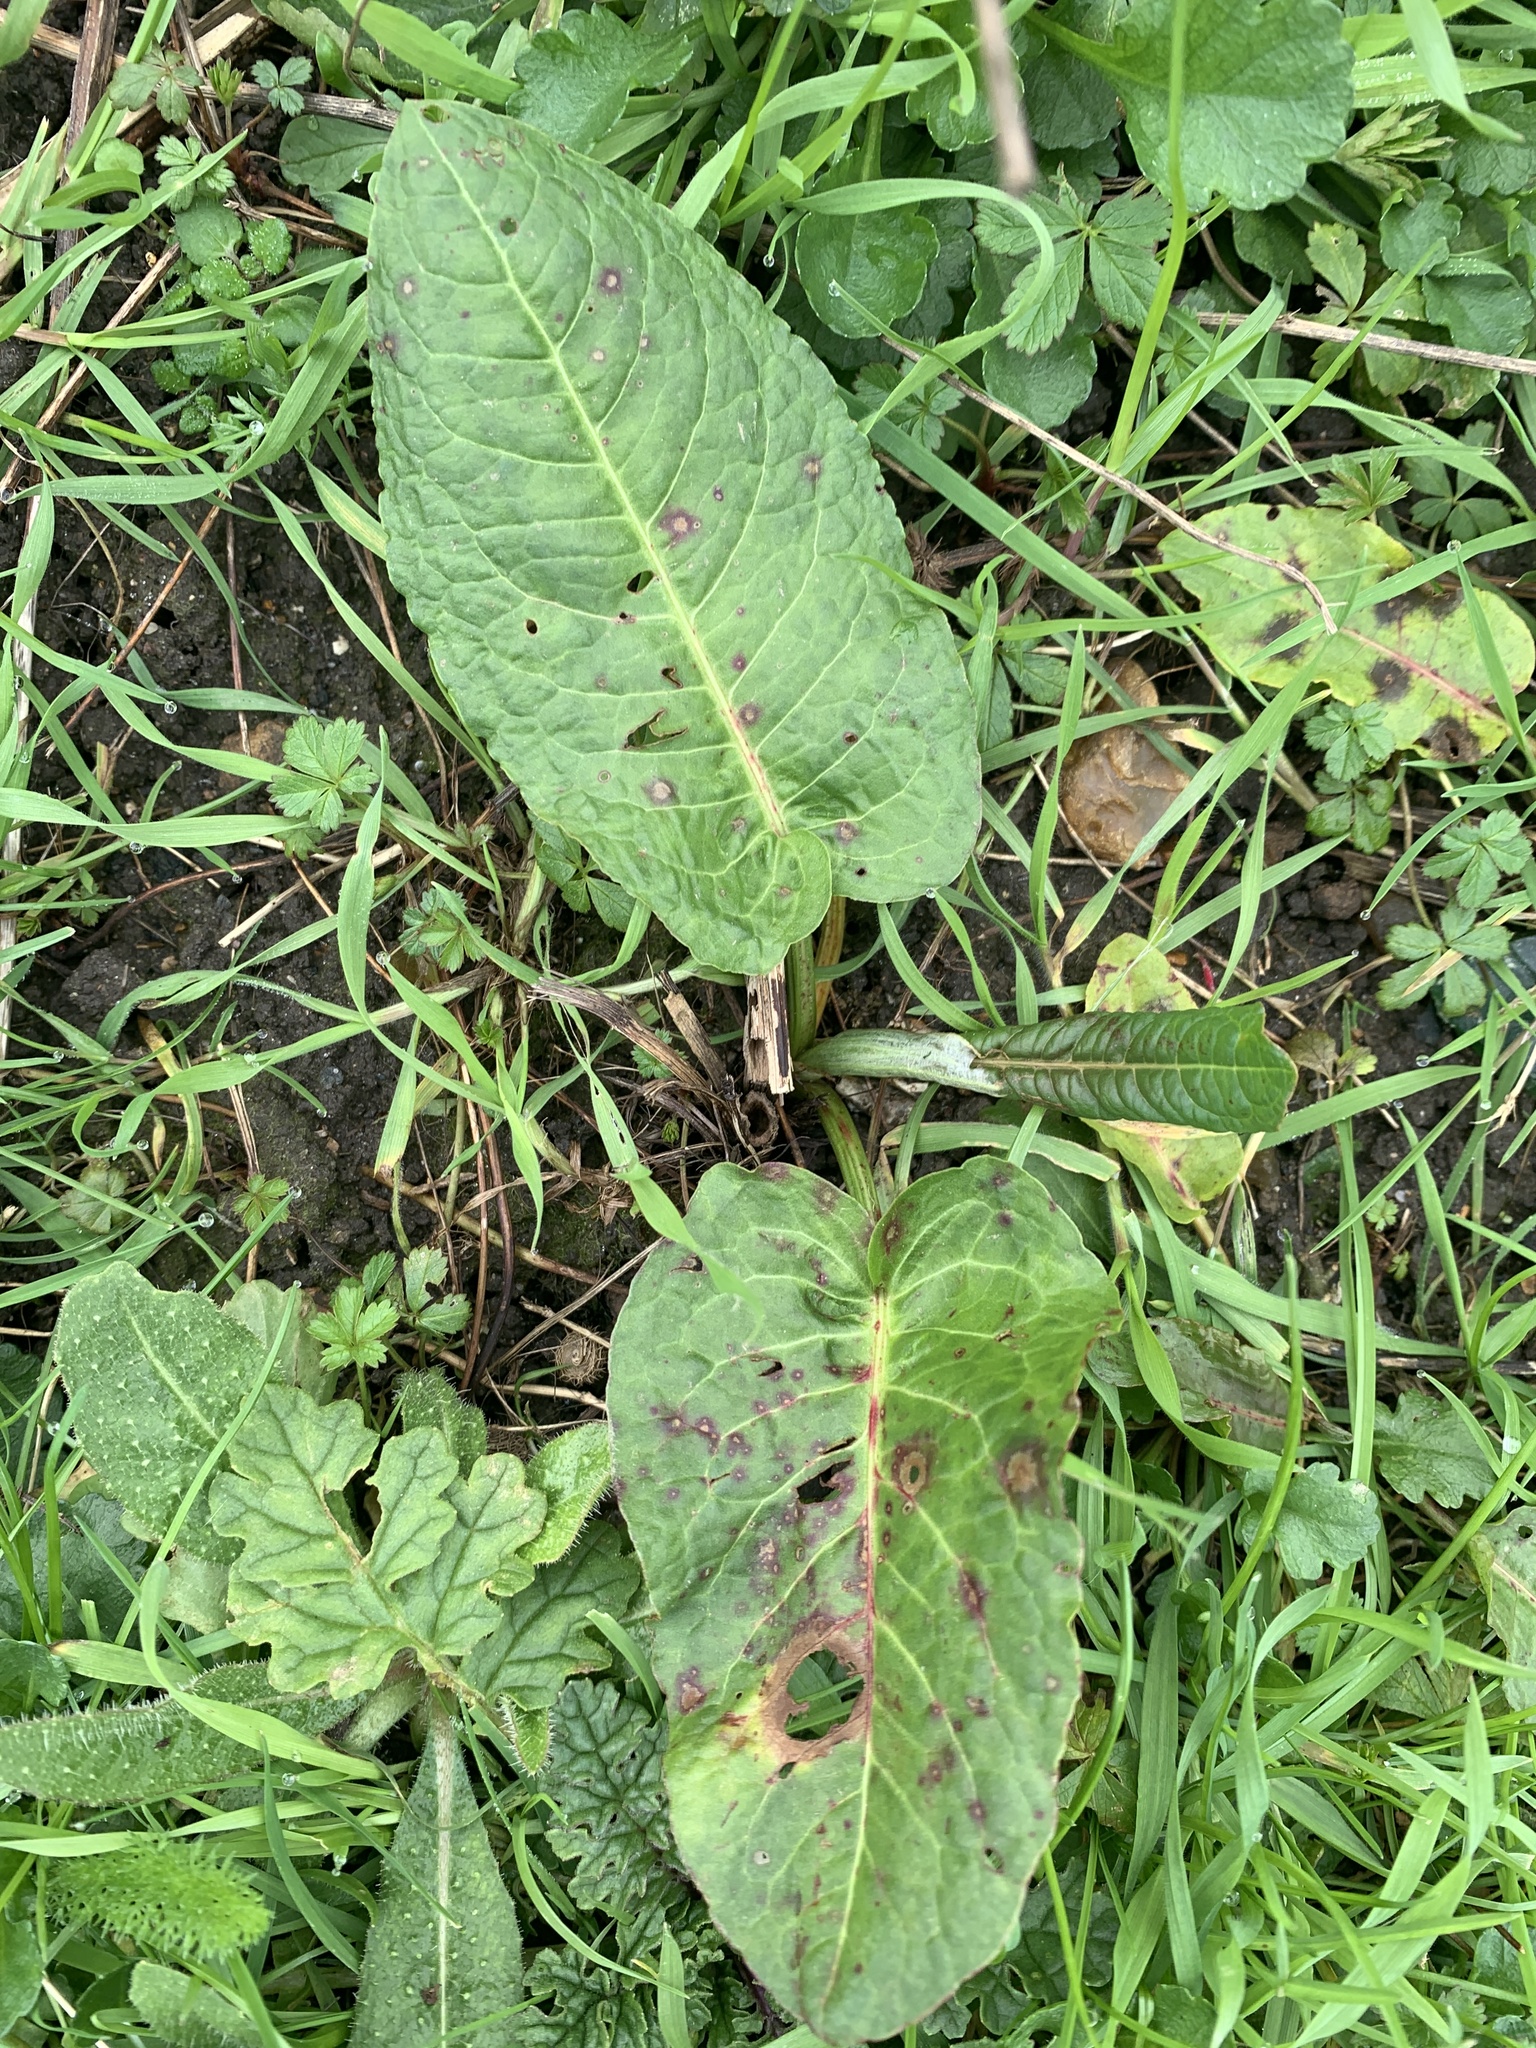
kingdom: Plantae
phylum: Tracheophyta
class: Magnoliopsida
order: Caryophyllales
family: Polygonaceae
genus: Rumex
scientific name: Rumex obtusifolius
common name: Bitter dock
